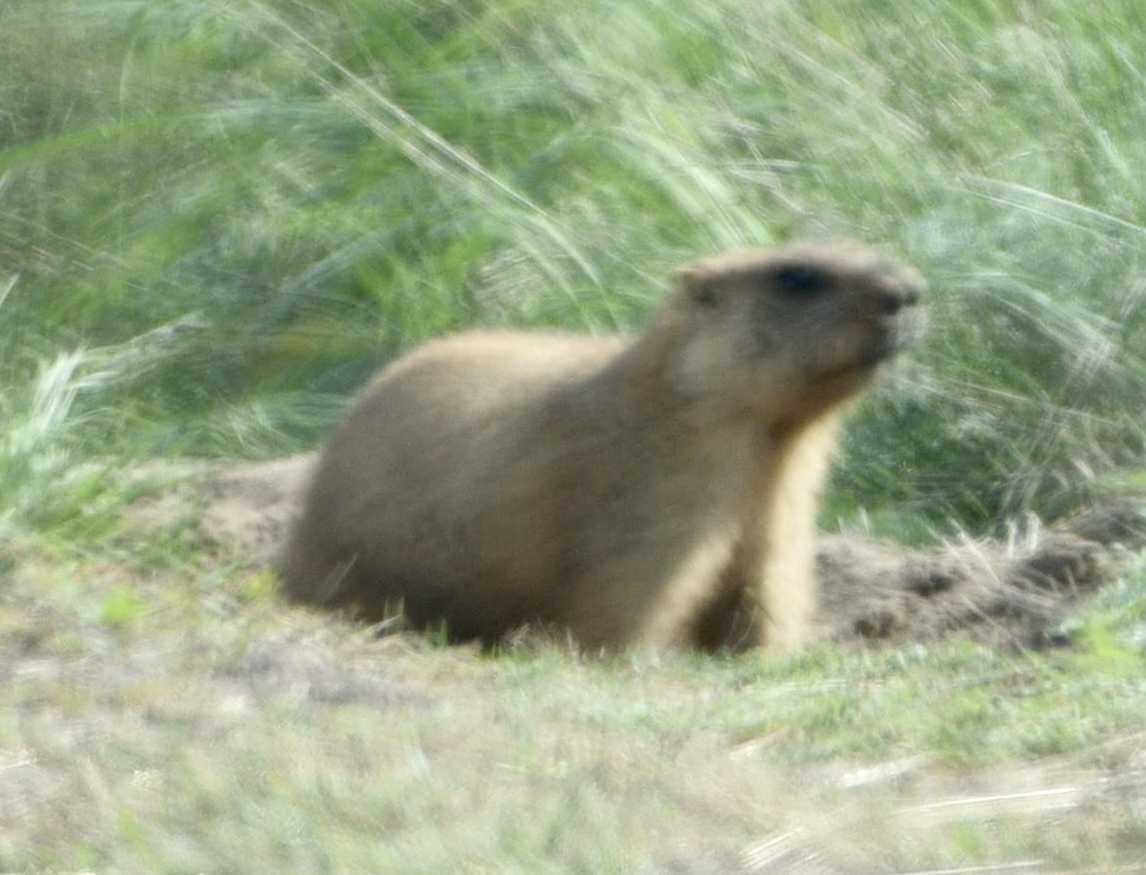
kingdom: Animalia
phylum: Chordata
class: Mammalia
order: Rodentia
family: Sciuridae
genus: Marmota
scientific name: Marmota bobak
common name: Bobak marmot
